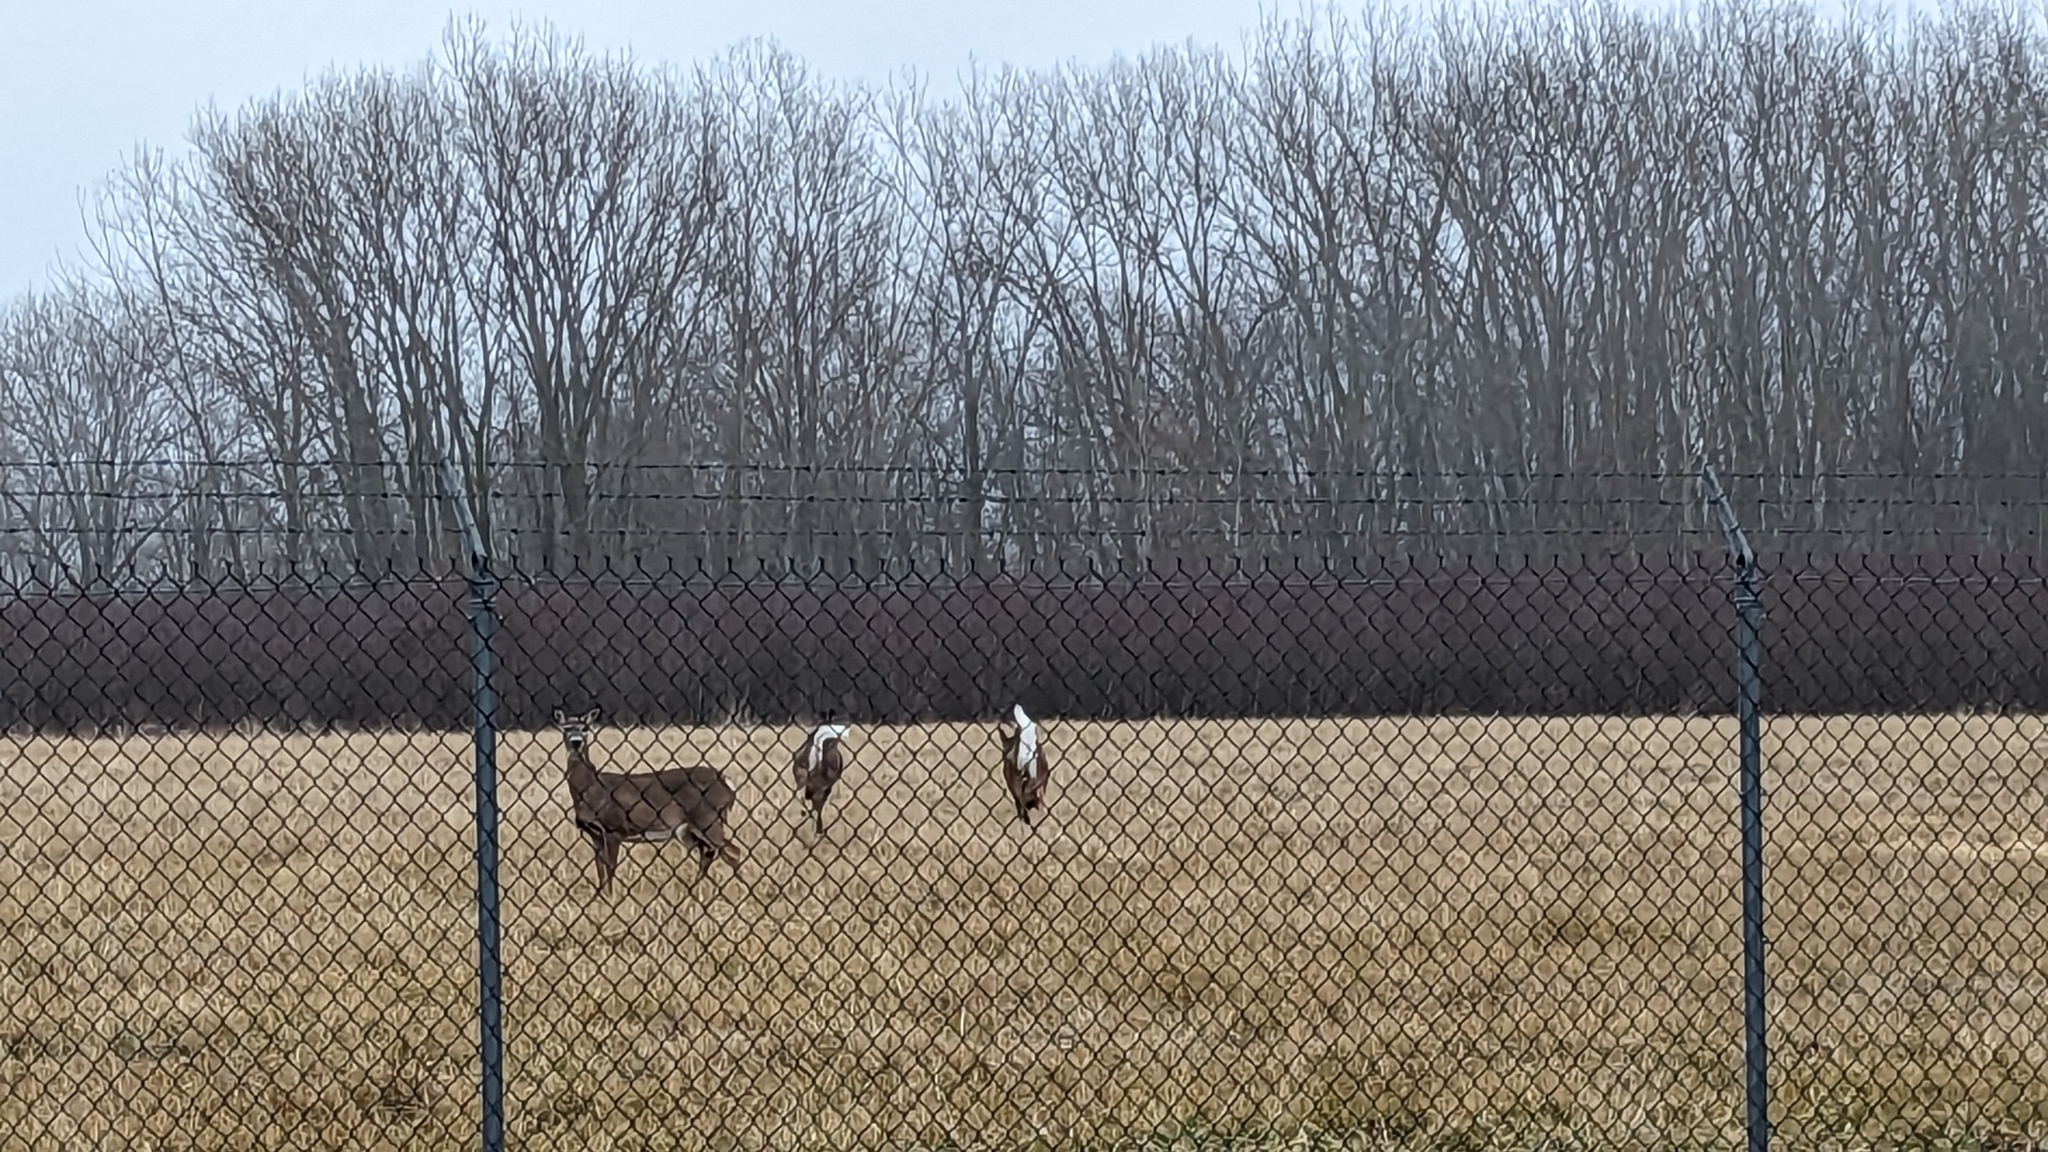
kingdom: Animalia
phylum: Chordata
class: Mammalia
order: Artiodactyla
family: Cervidae
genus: Odocoileus
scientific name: Odocoileus virginianus
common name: White-tailed deer
